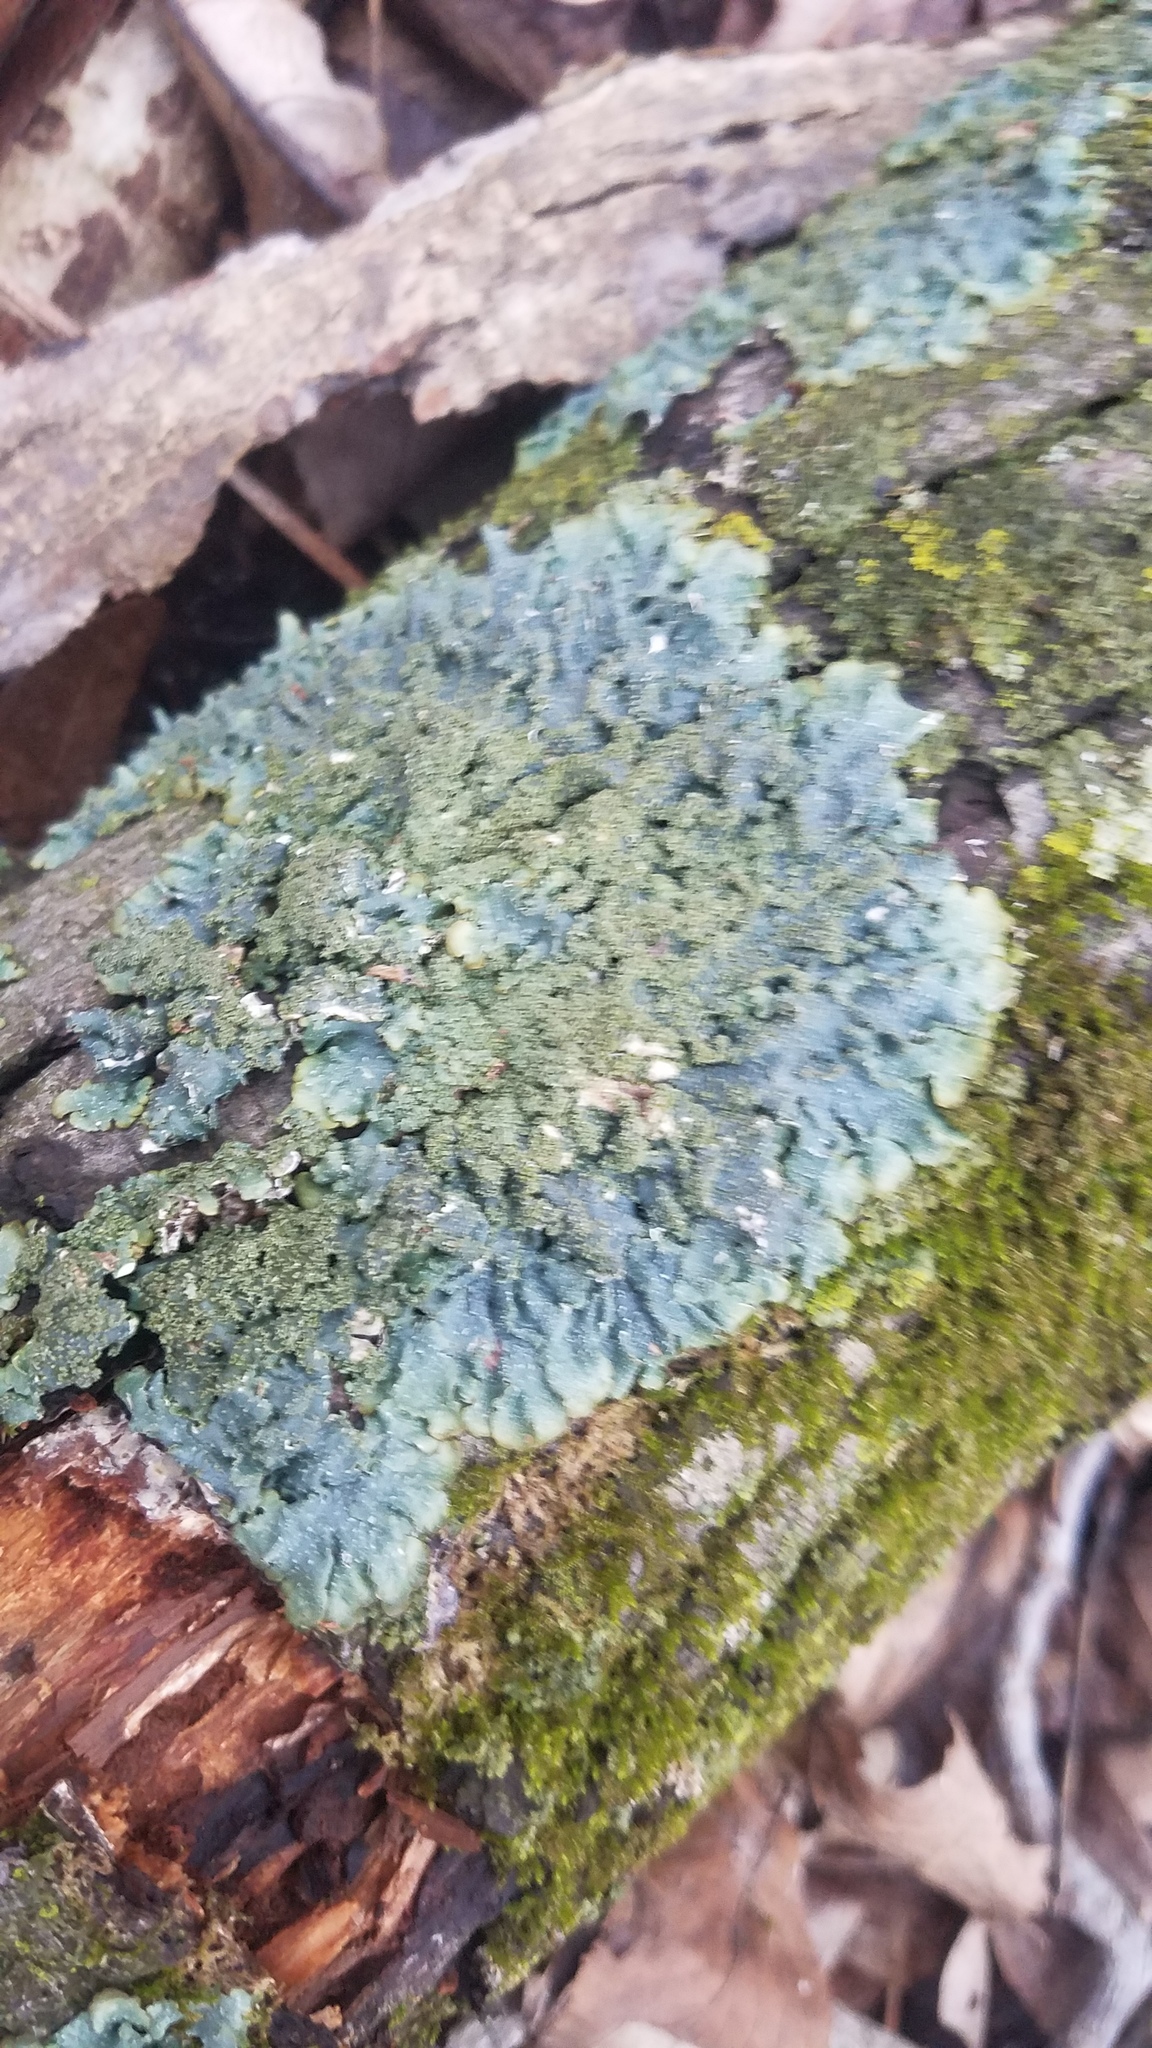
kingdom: Fungi
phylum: Ascomycota
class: Lecanoromycetes
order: Lecanorales
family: Parmeliaceae
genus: Punctelia
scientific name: Punctelia rudecta
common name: Rough speckled shield lichen
